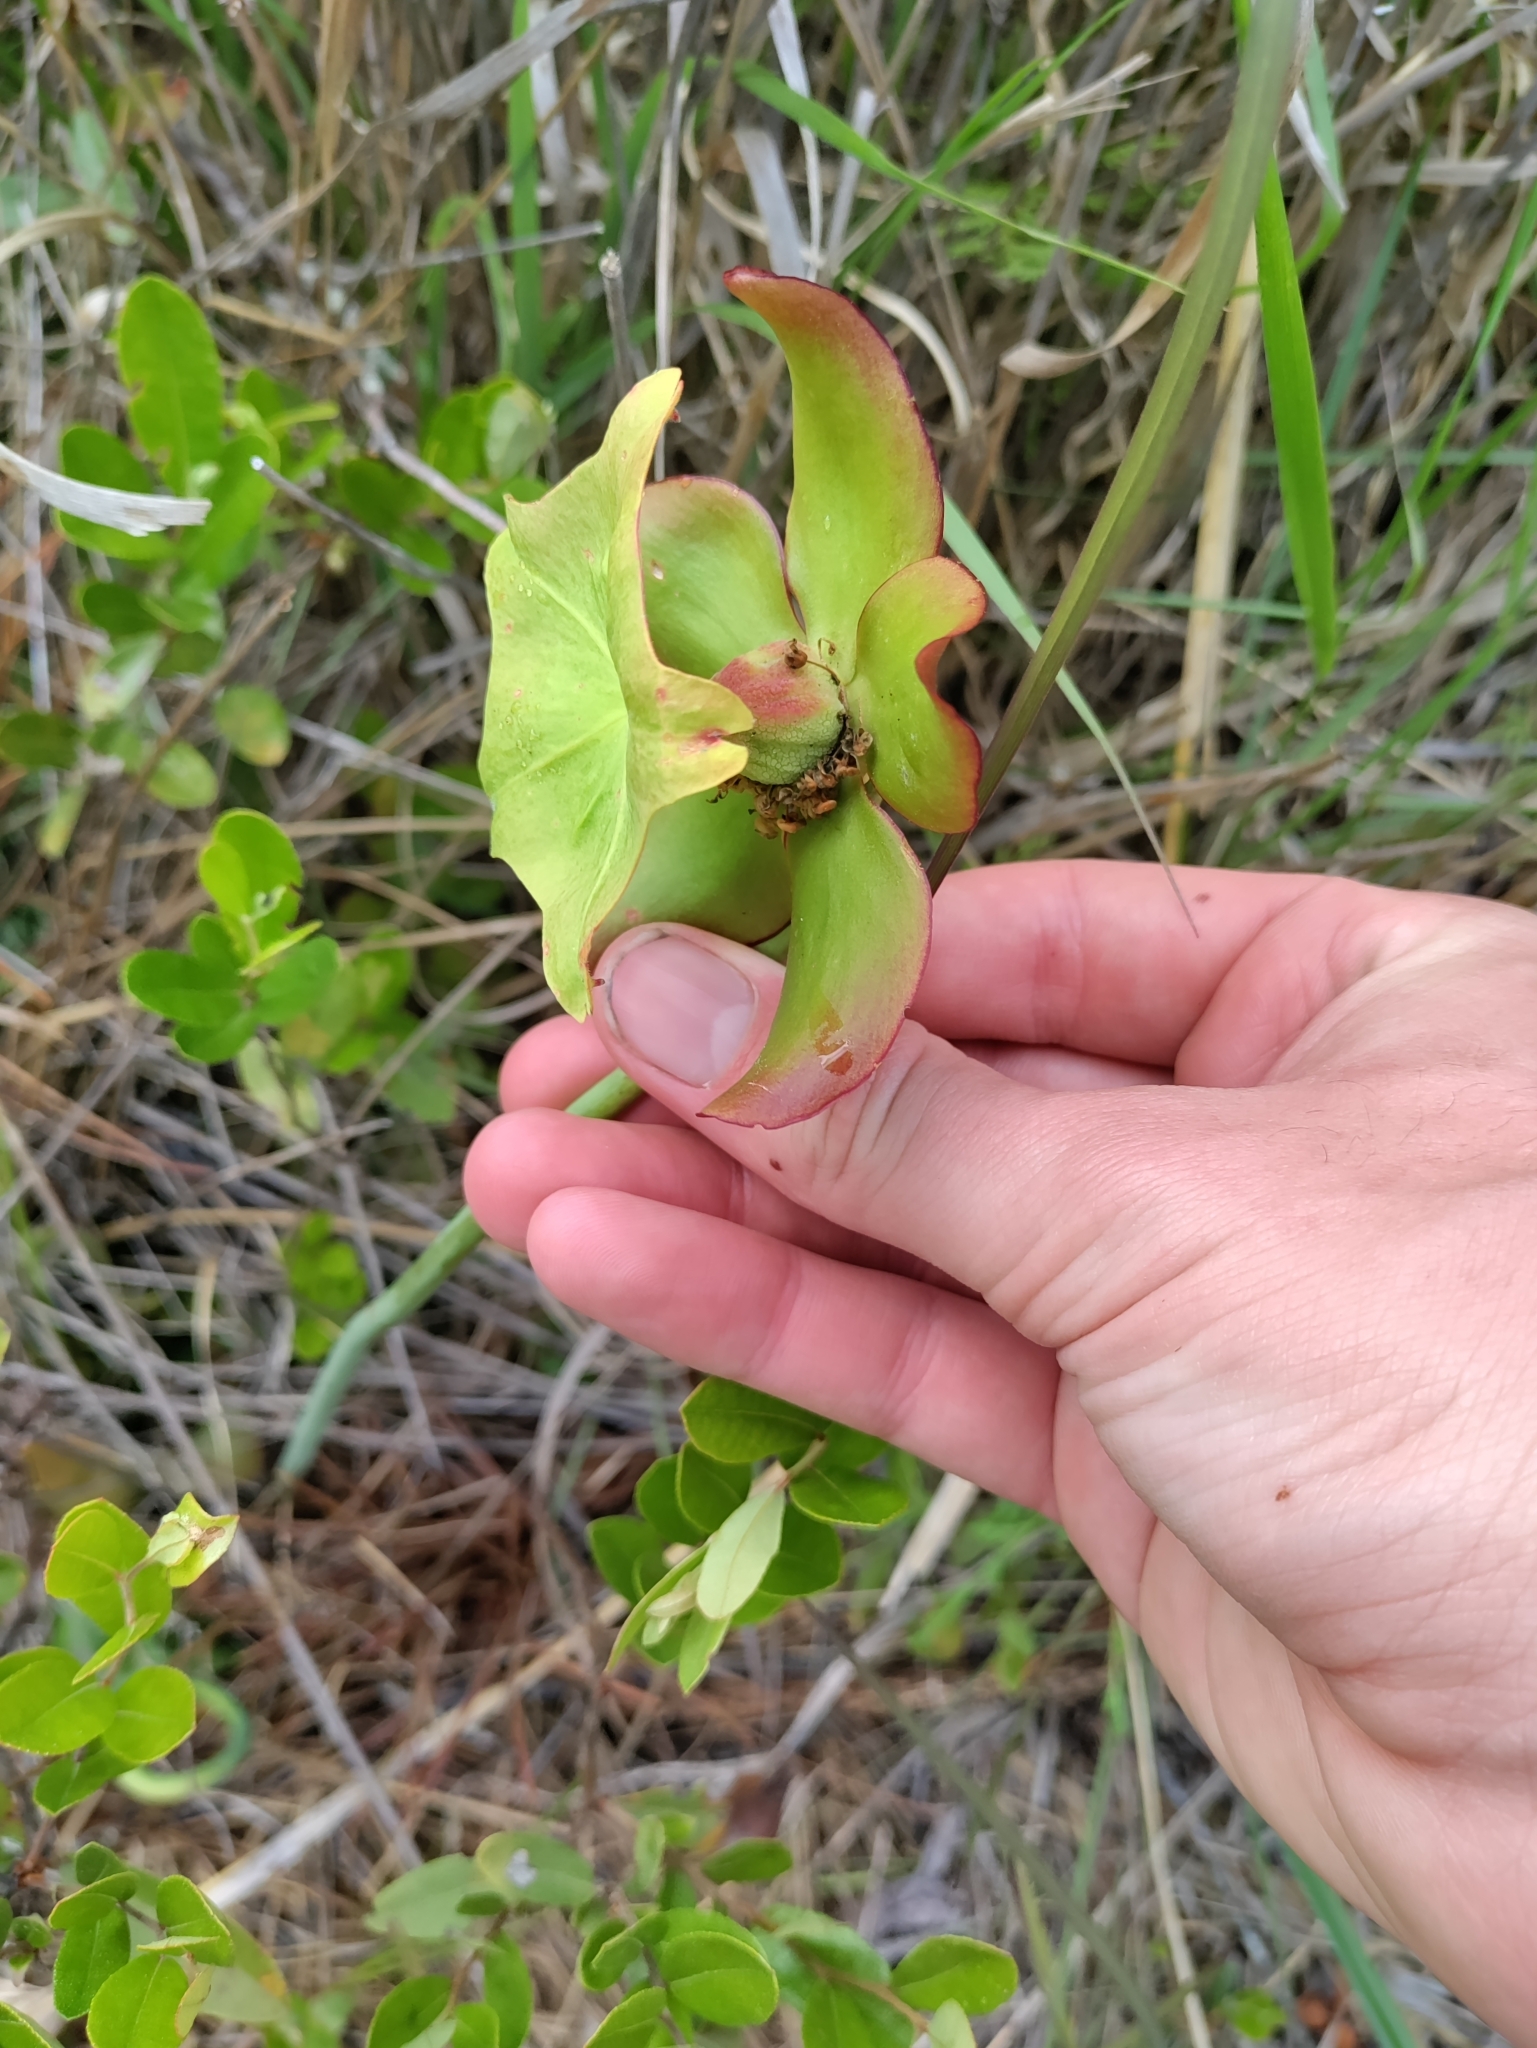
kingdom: Plantae
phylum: Tracheophyta
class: Magnoliopsida
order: Ericales
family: Sarraceniaceae
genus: Sarracenia
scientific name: Sarracenia purpurea
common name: Pitcherplant
